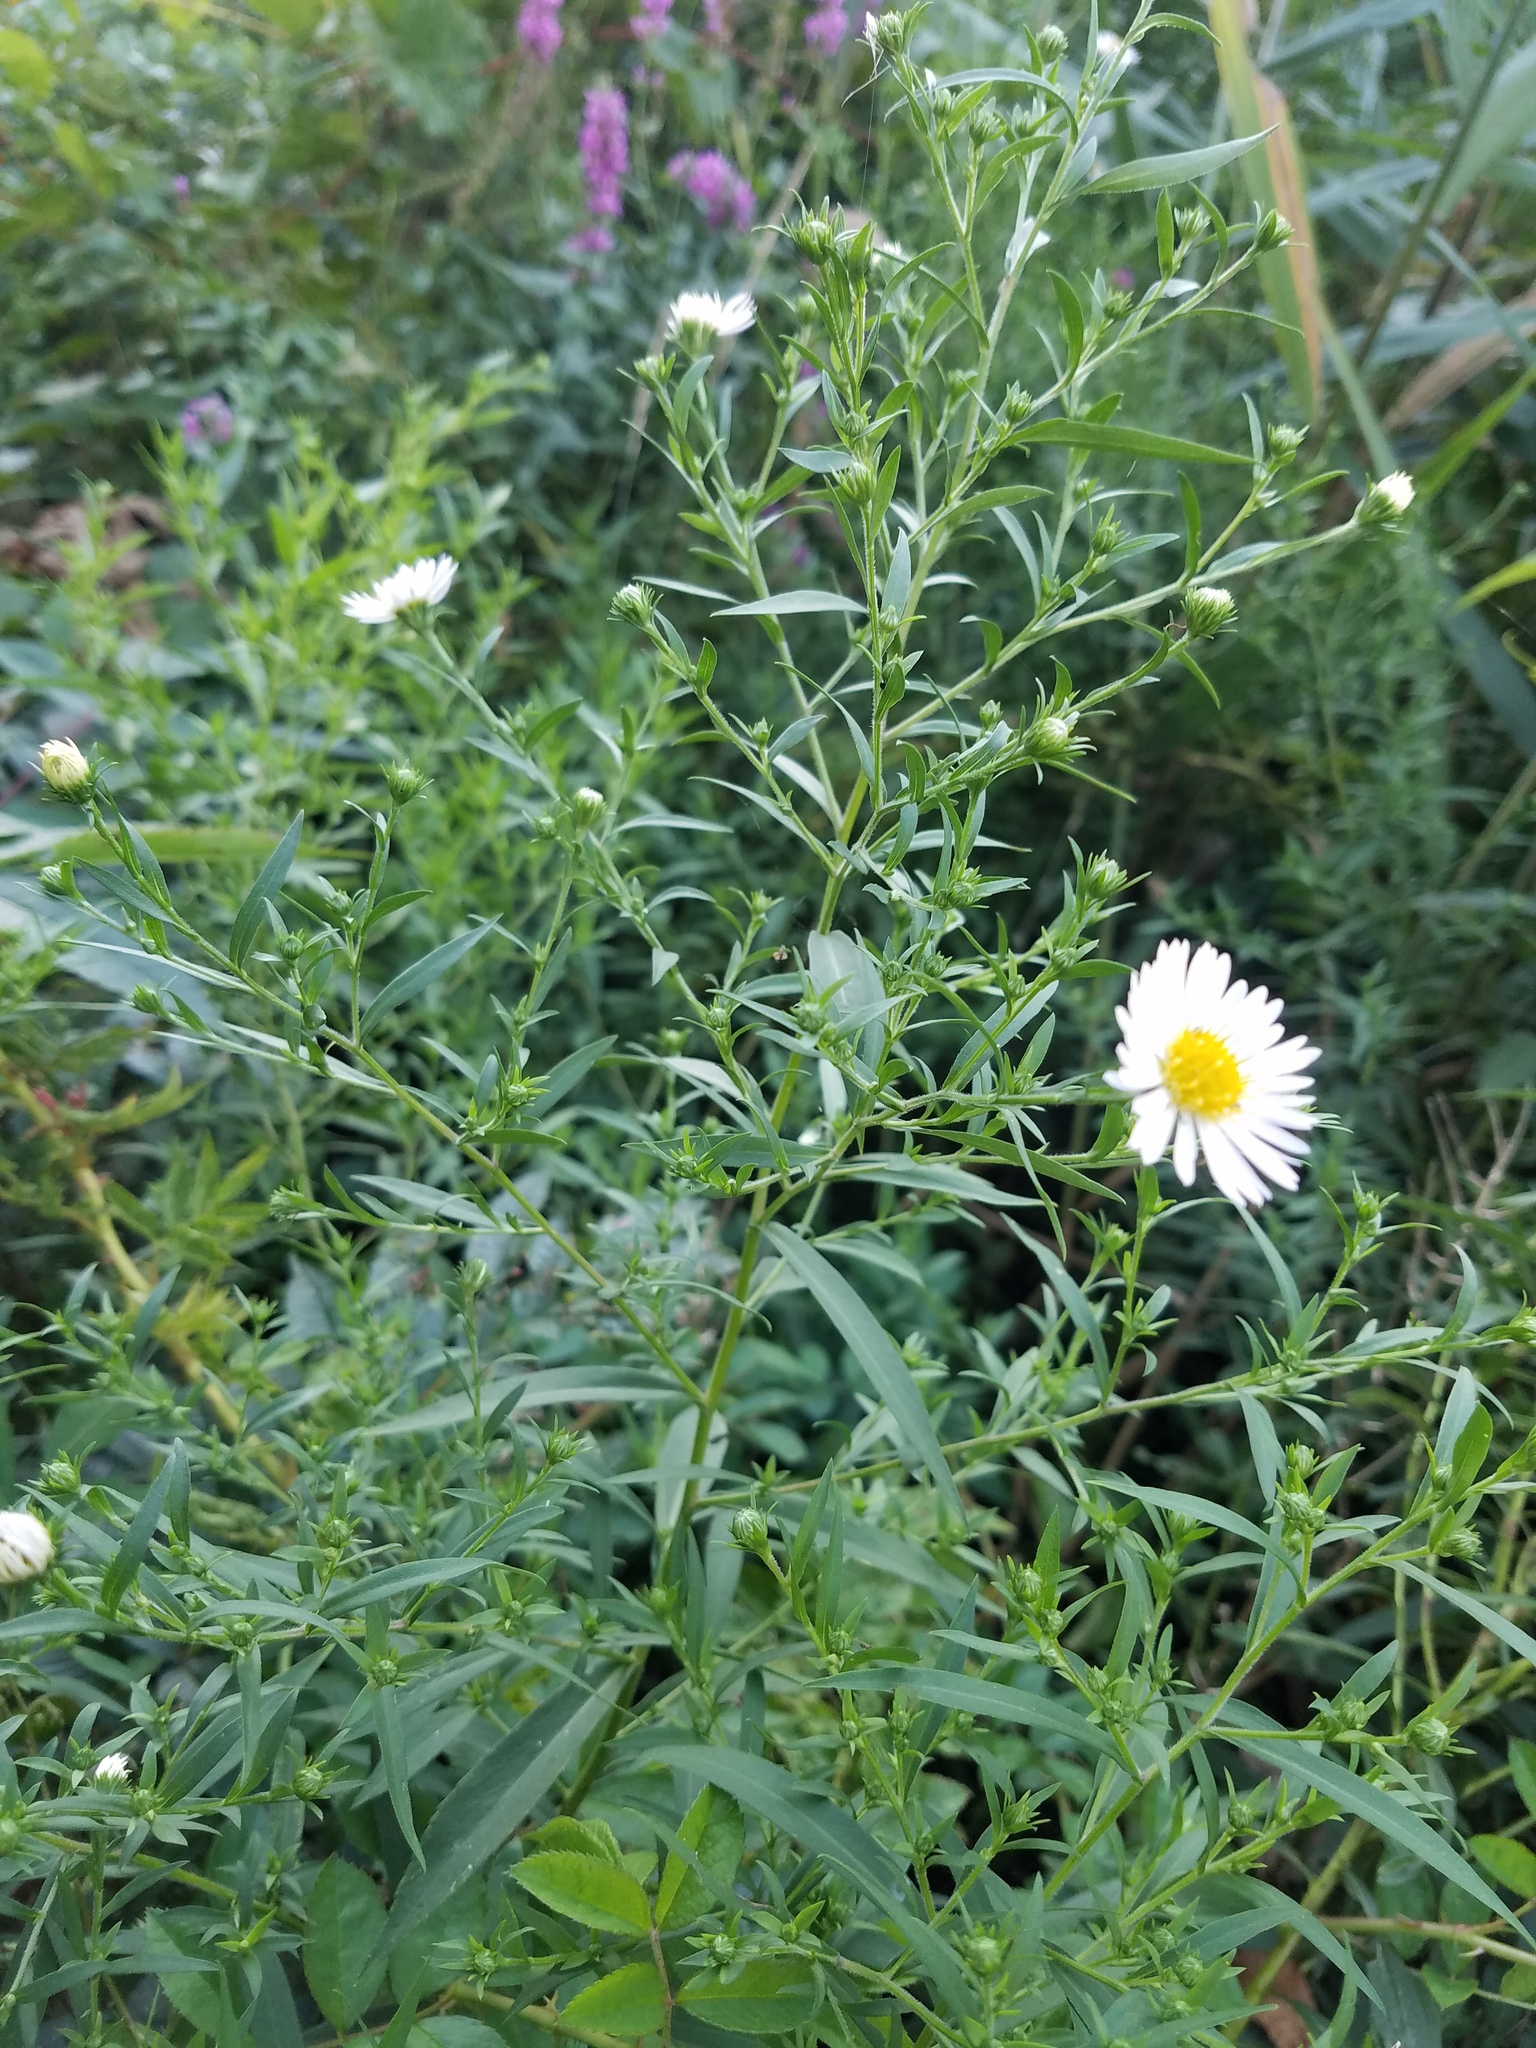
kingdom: Plantae
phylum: Tracheophyta
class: Magnoliopsida
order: Asterales
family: Asteraceae
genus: Symphyotrichum
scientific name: Symphyotrichum lanceolatum
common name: Panicled aster
